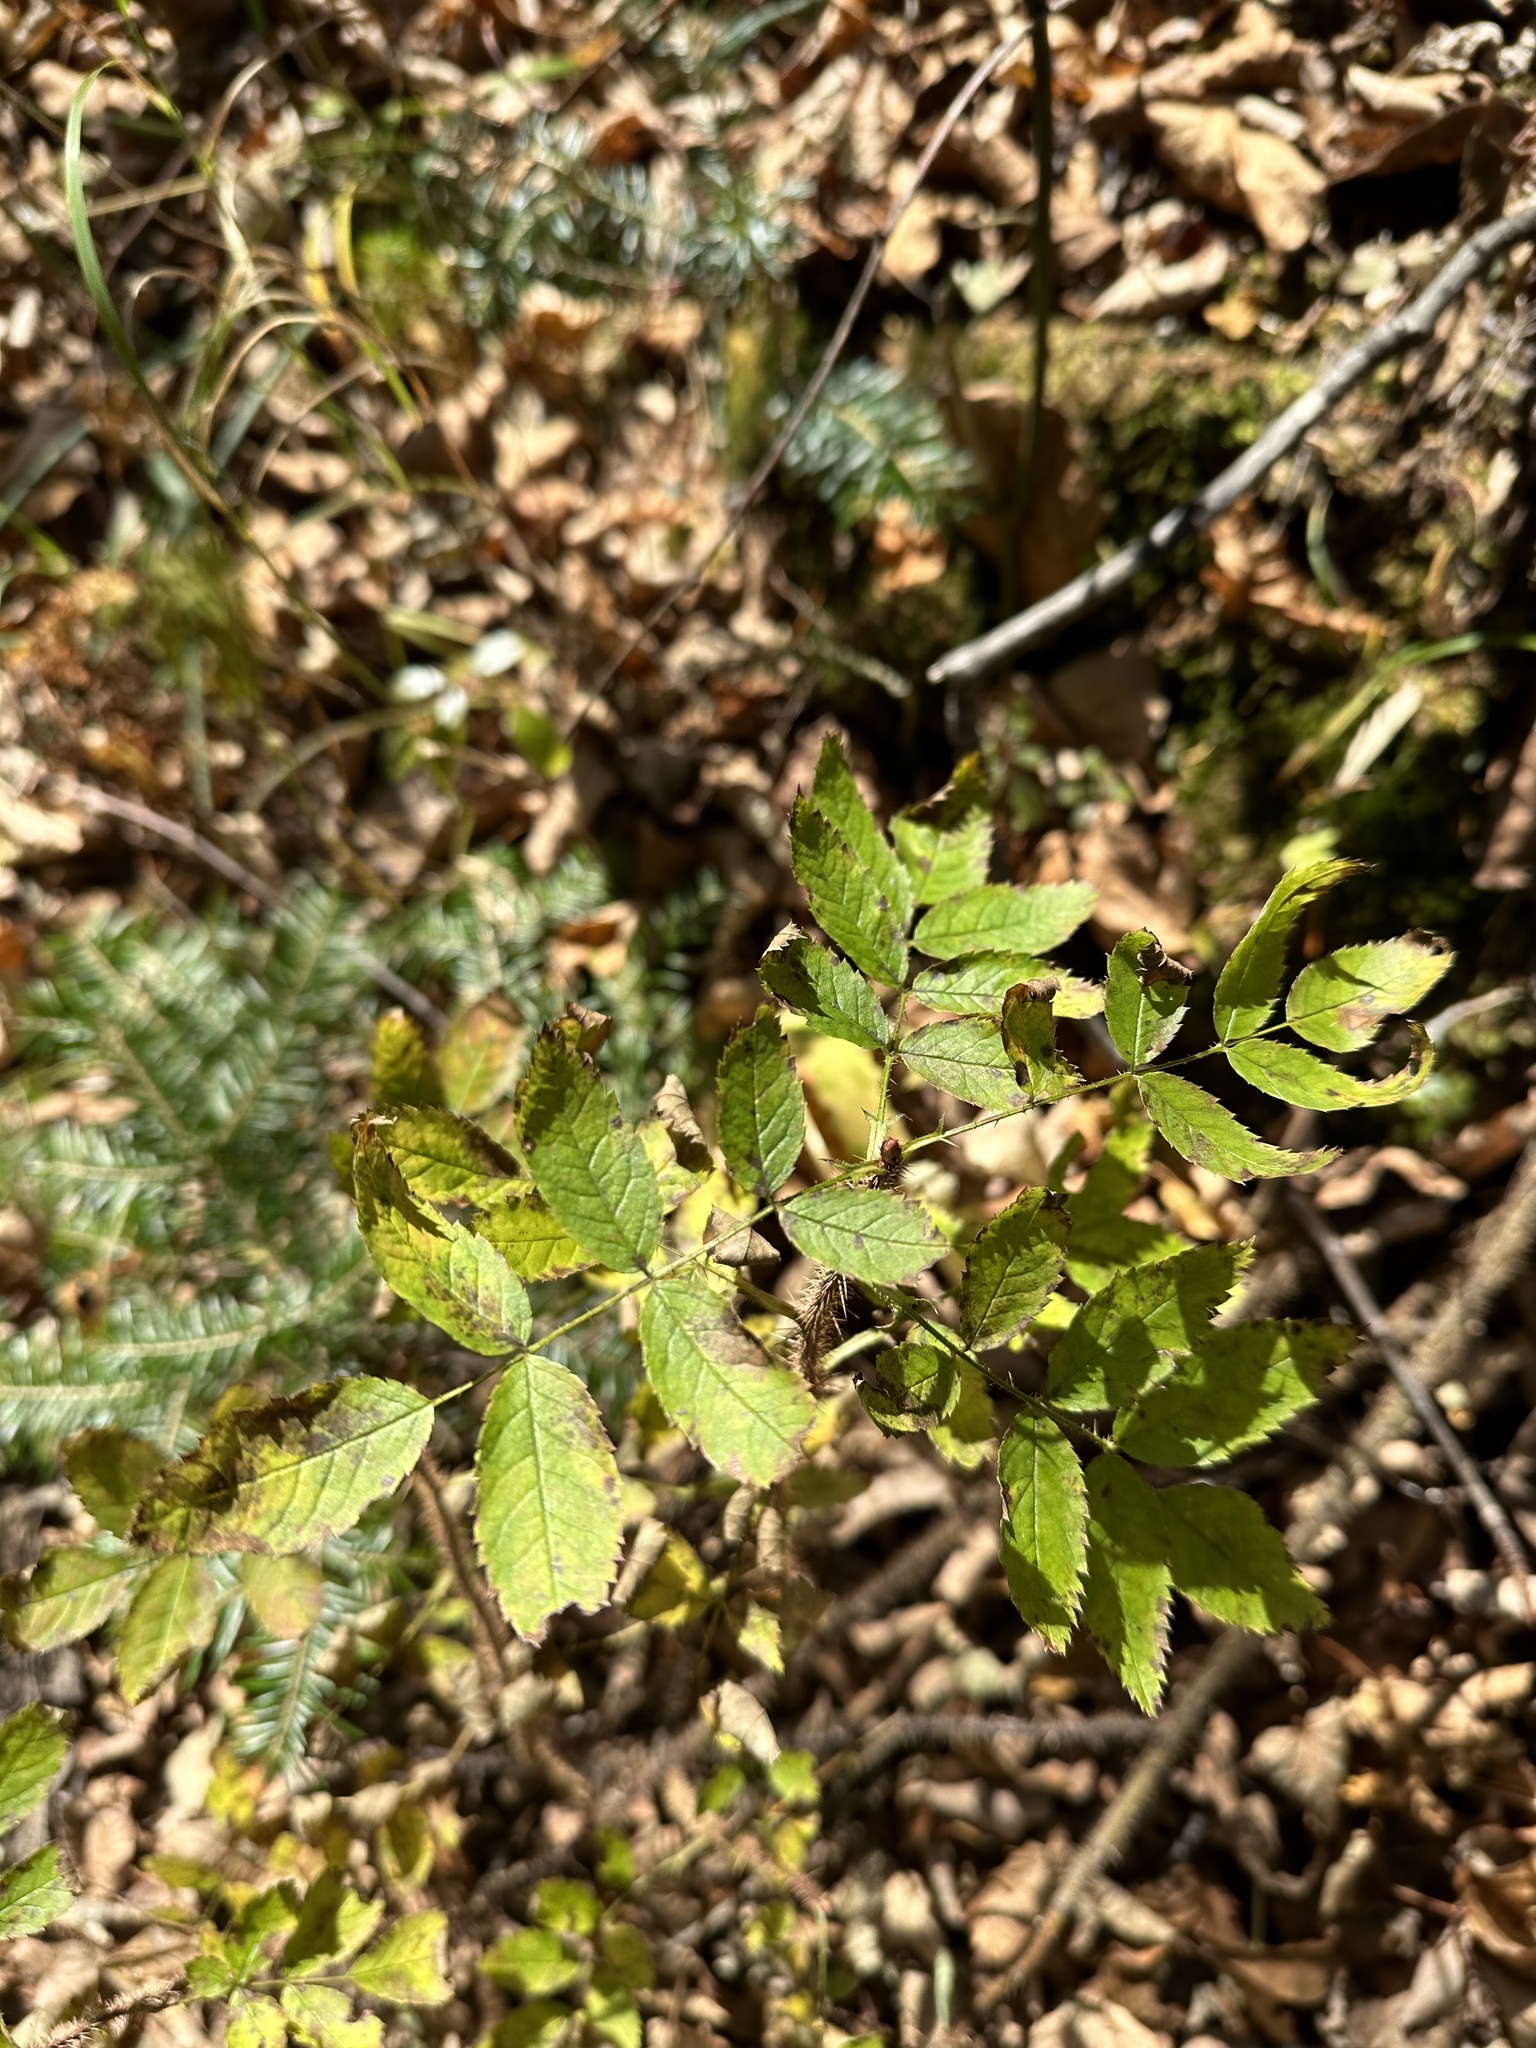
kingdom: Plantae
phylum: Tracheophyta
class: Magnoliopsida
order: Rosales
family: Rosaceae
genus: Rosa
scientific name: Rosa acicularis
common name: Prickly rose
